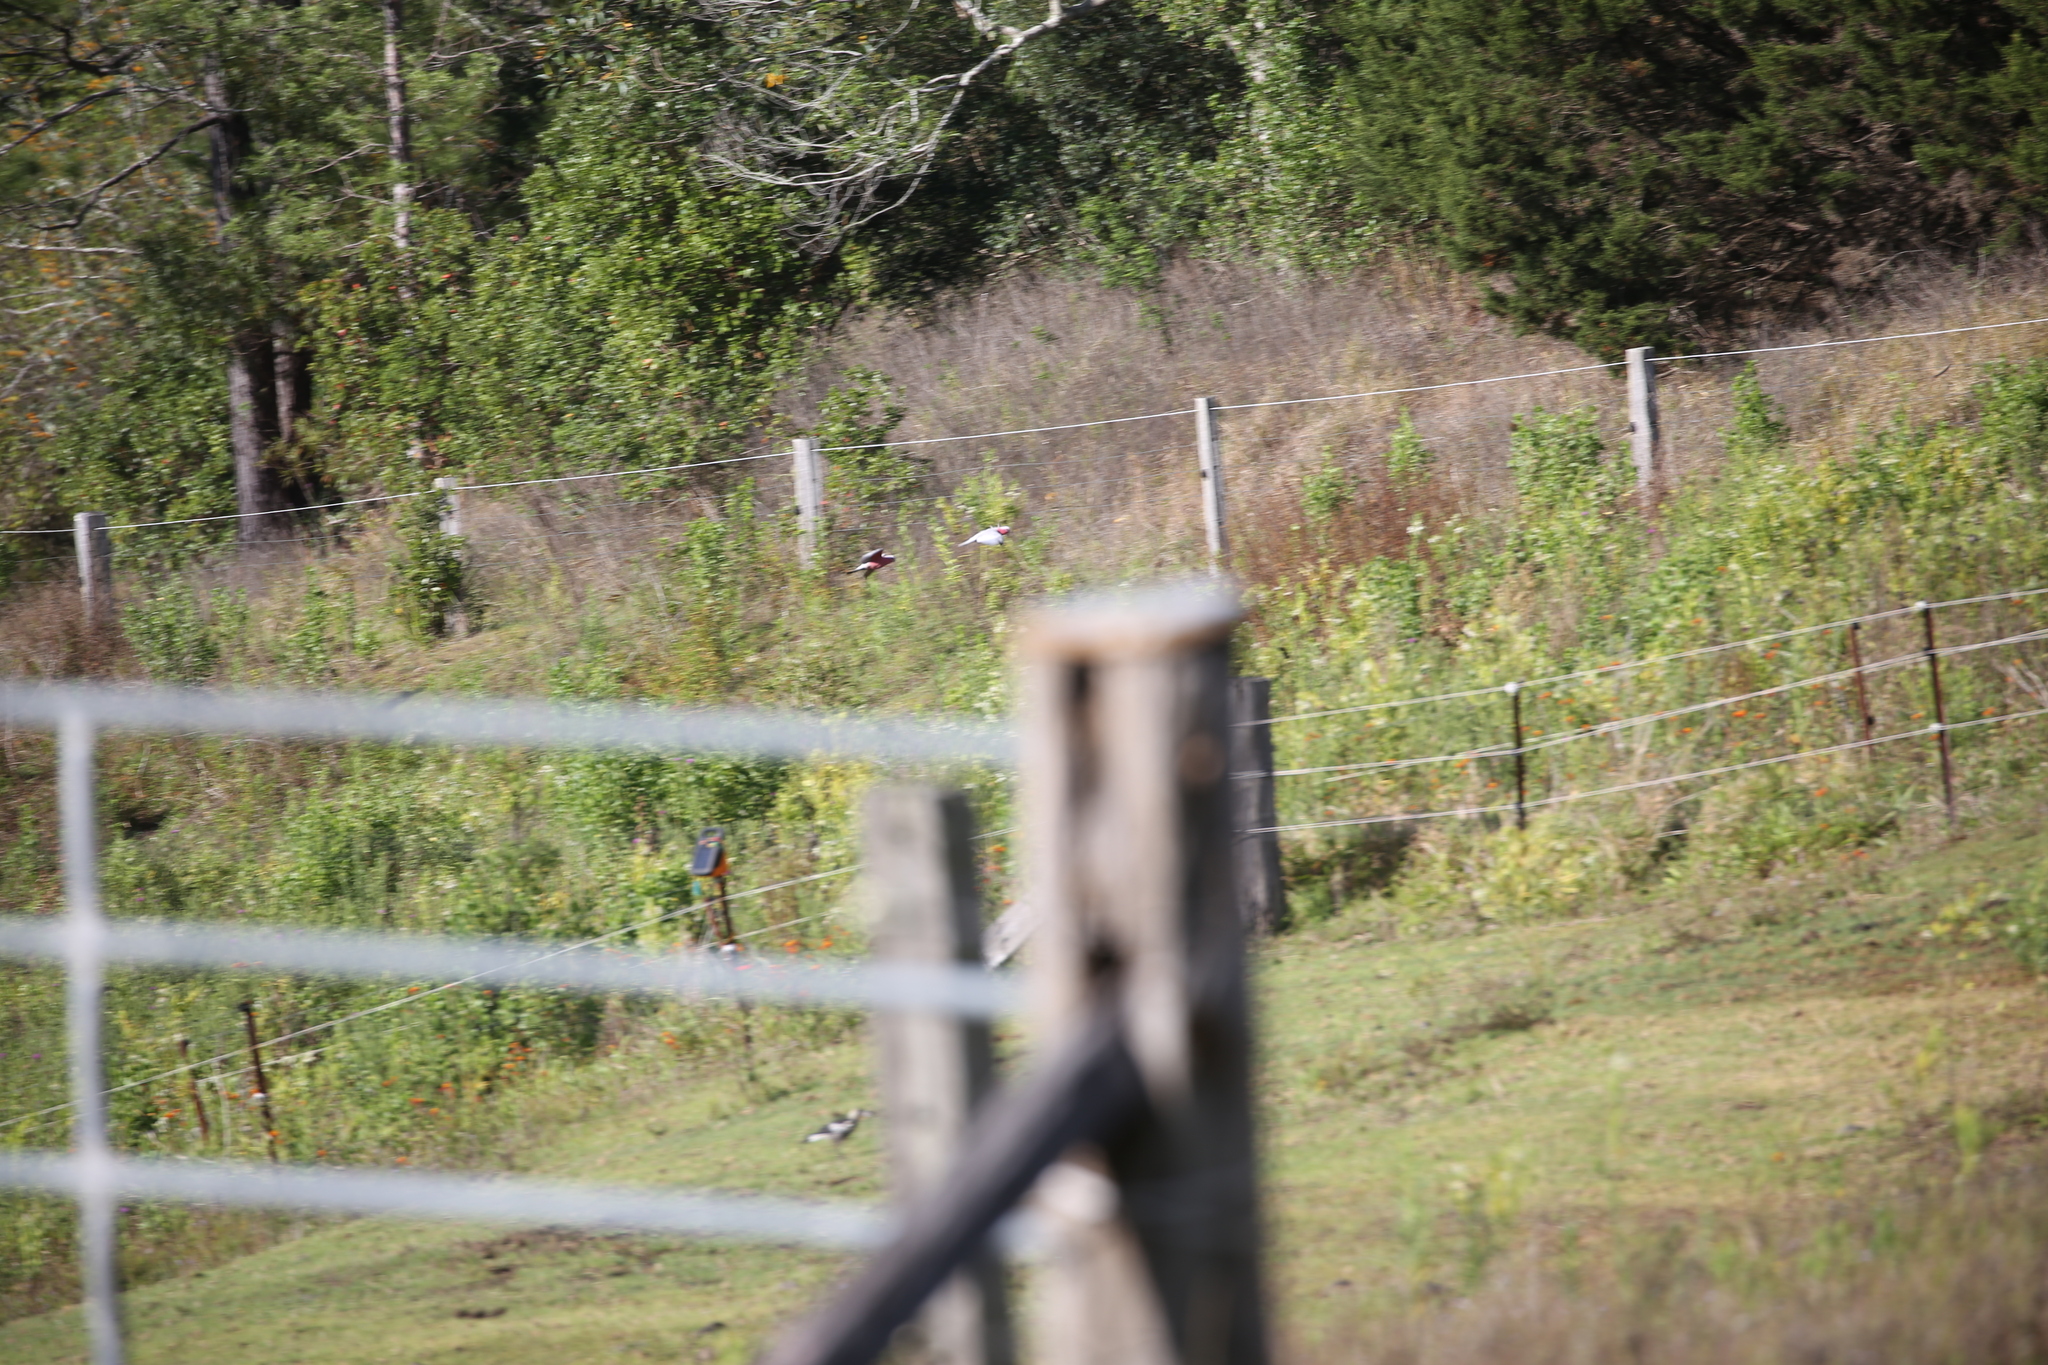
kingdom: Animalia
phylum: Chordata
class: Aves
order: Psittaciformes
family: Psittacidae
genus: Eolophus
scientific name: Eolophus roseicapilla
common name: Galah
